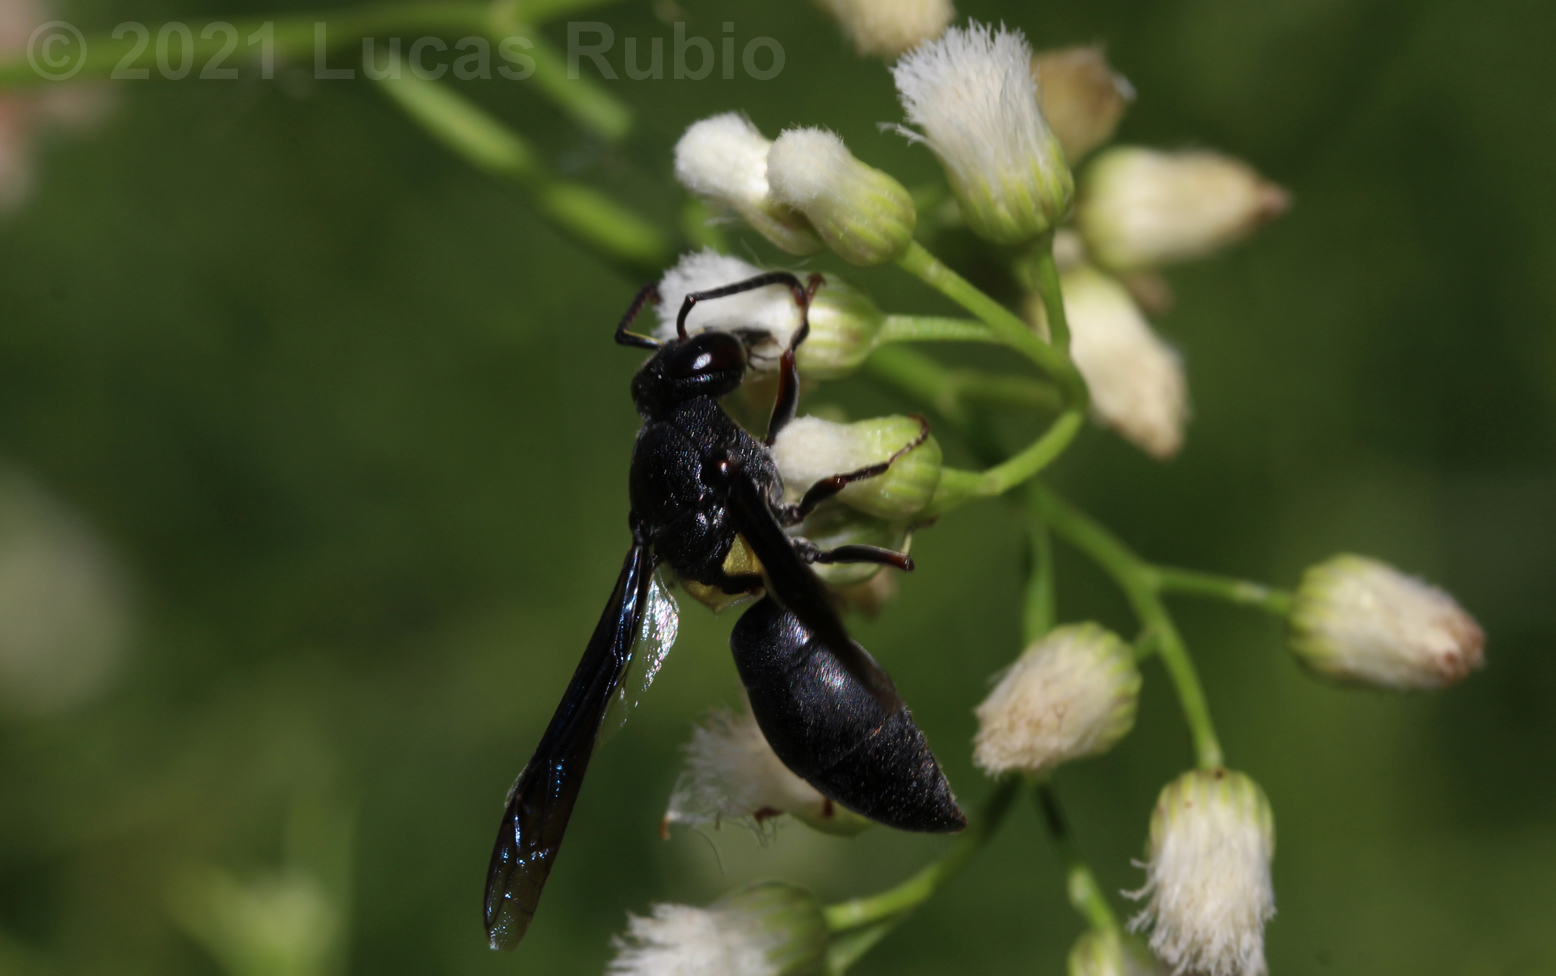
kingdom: Animalia
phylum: Arthropoda
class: Insecta
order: Hymenoptera
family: Eumenidae
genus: Monobia
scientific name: Monobia angulosa
